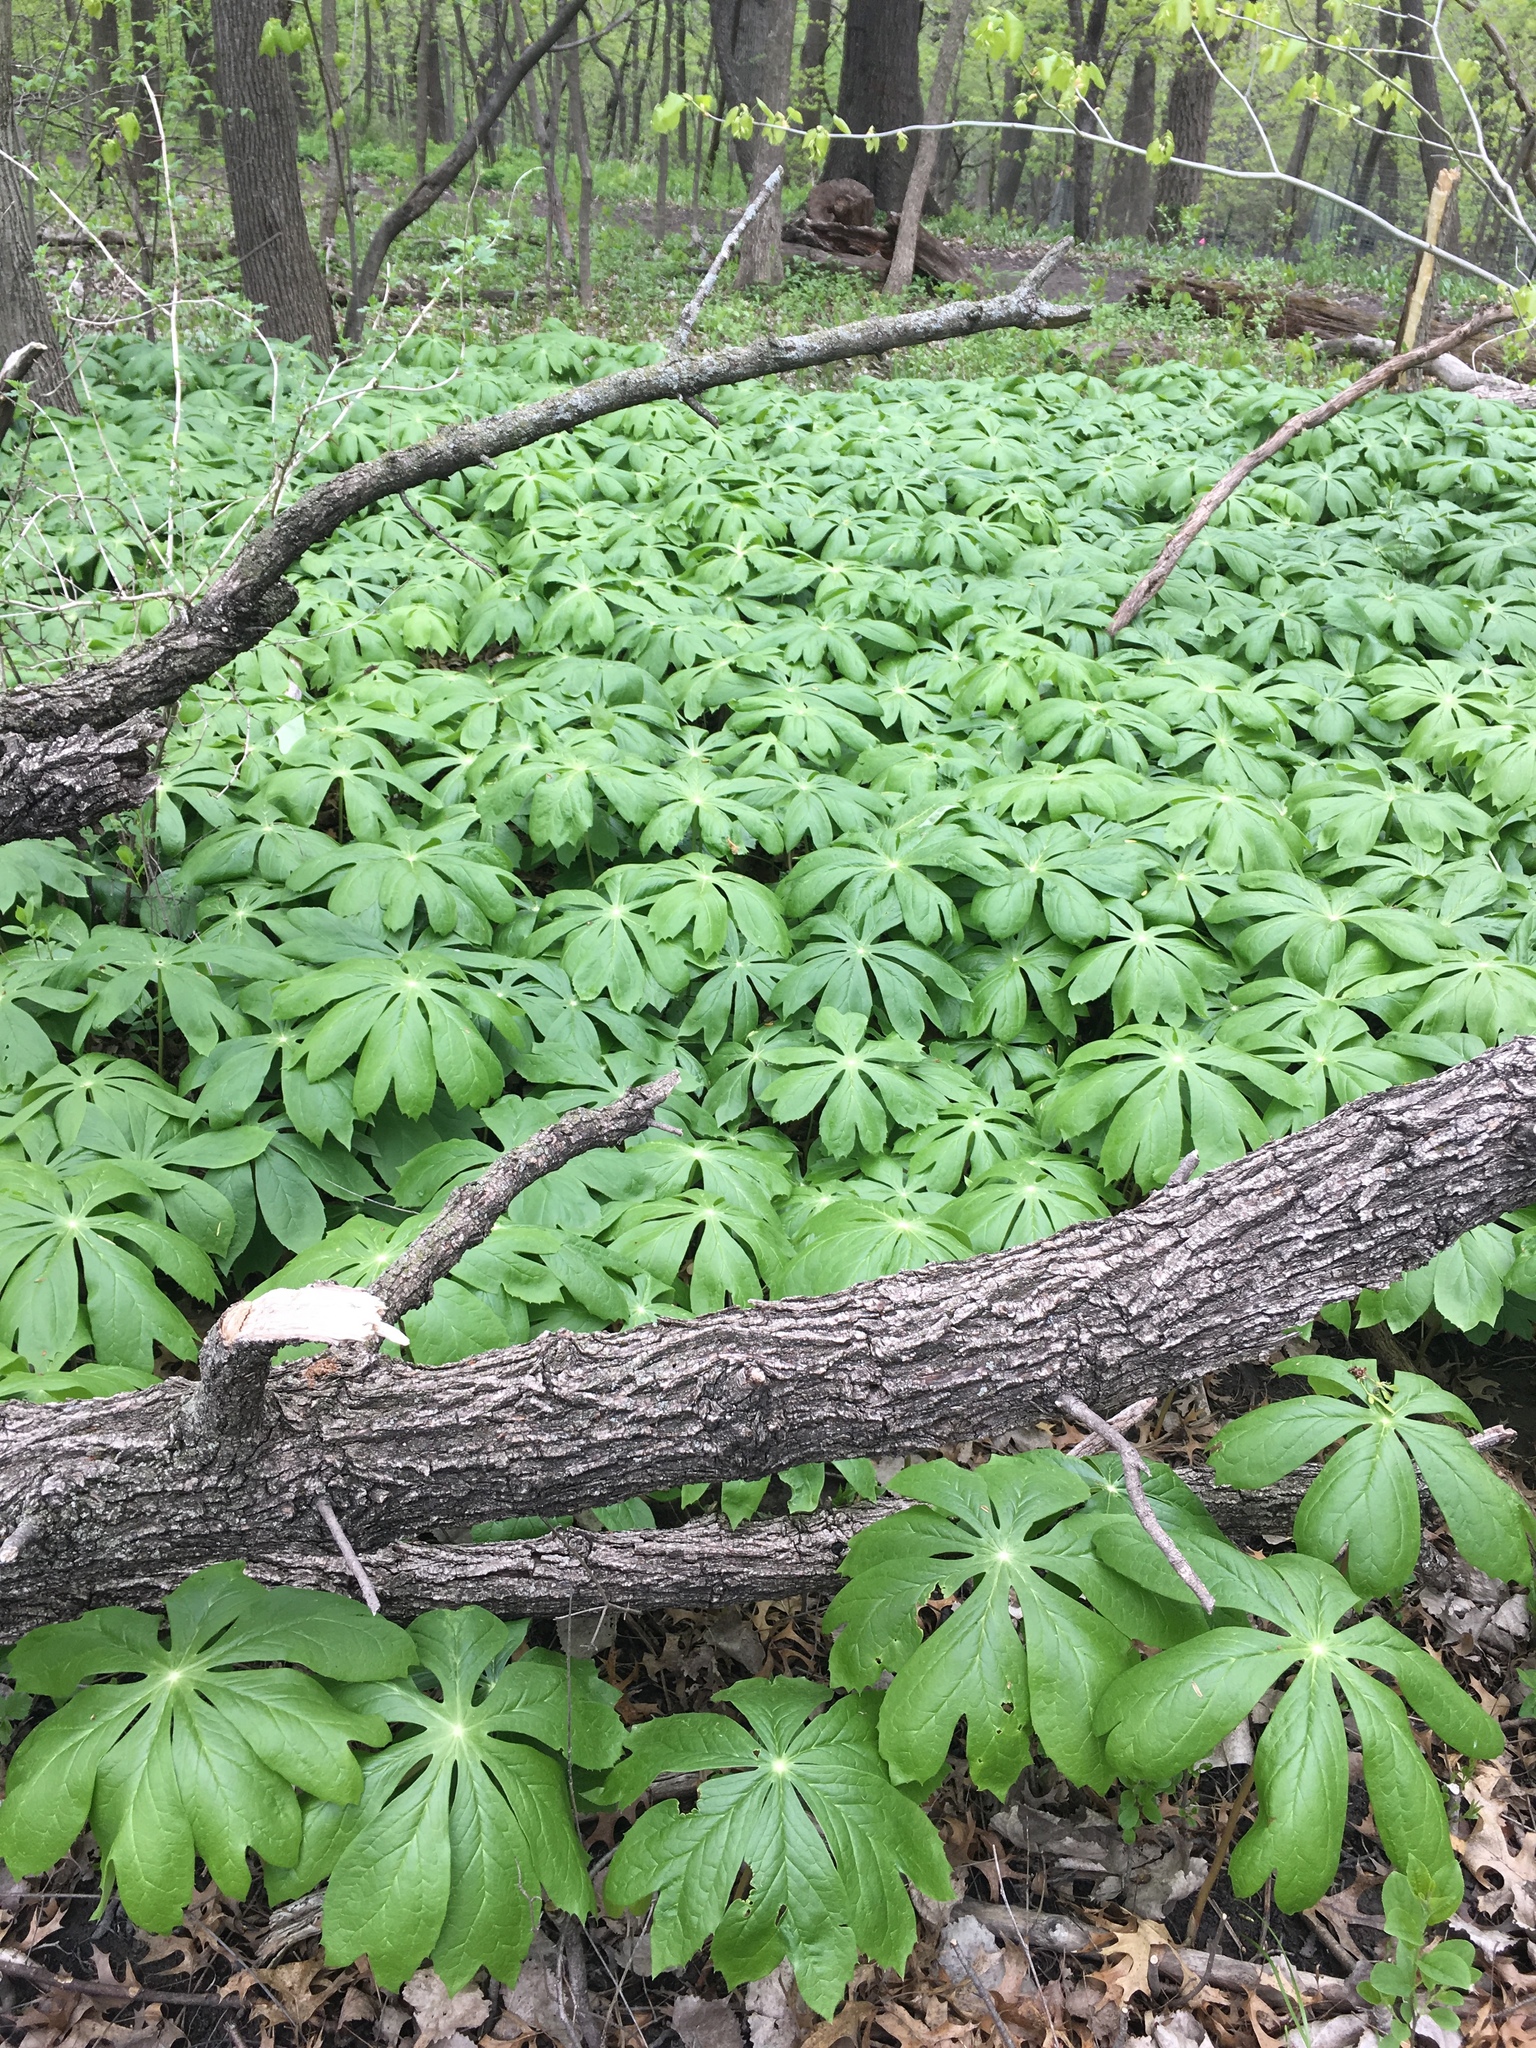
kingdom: Plantae
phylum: Tracheophyta
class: Magnoliopsida
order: Ranunculales
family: Berberidaceae
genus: Podophyllum
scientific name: Podophyllum peltatum
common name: Wild mandrake
